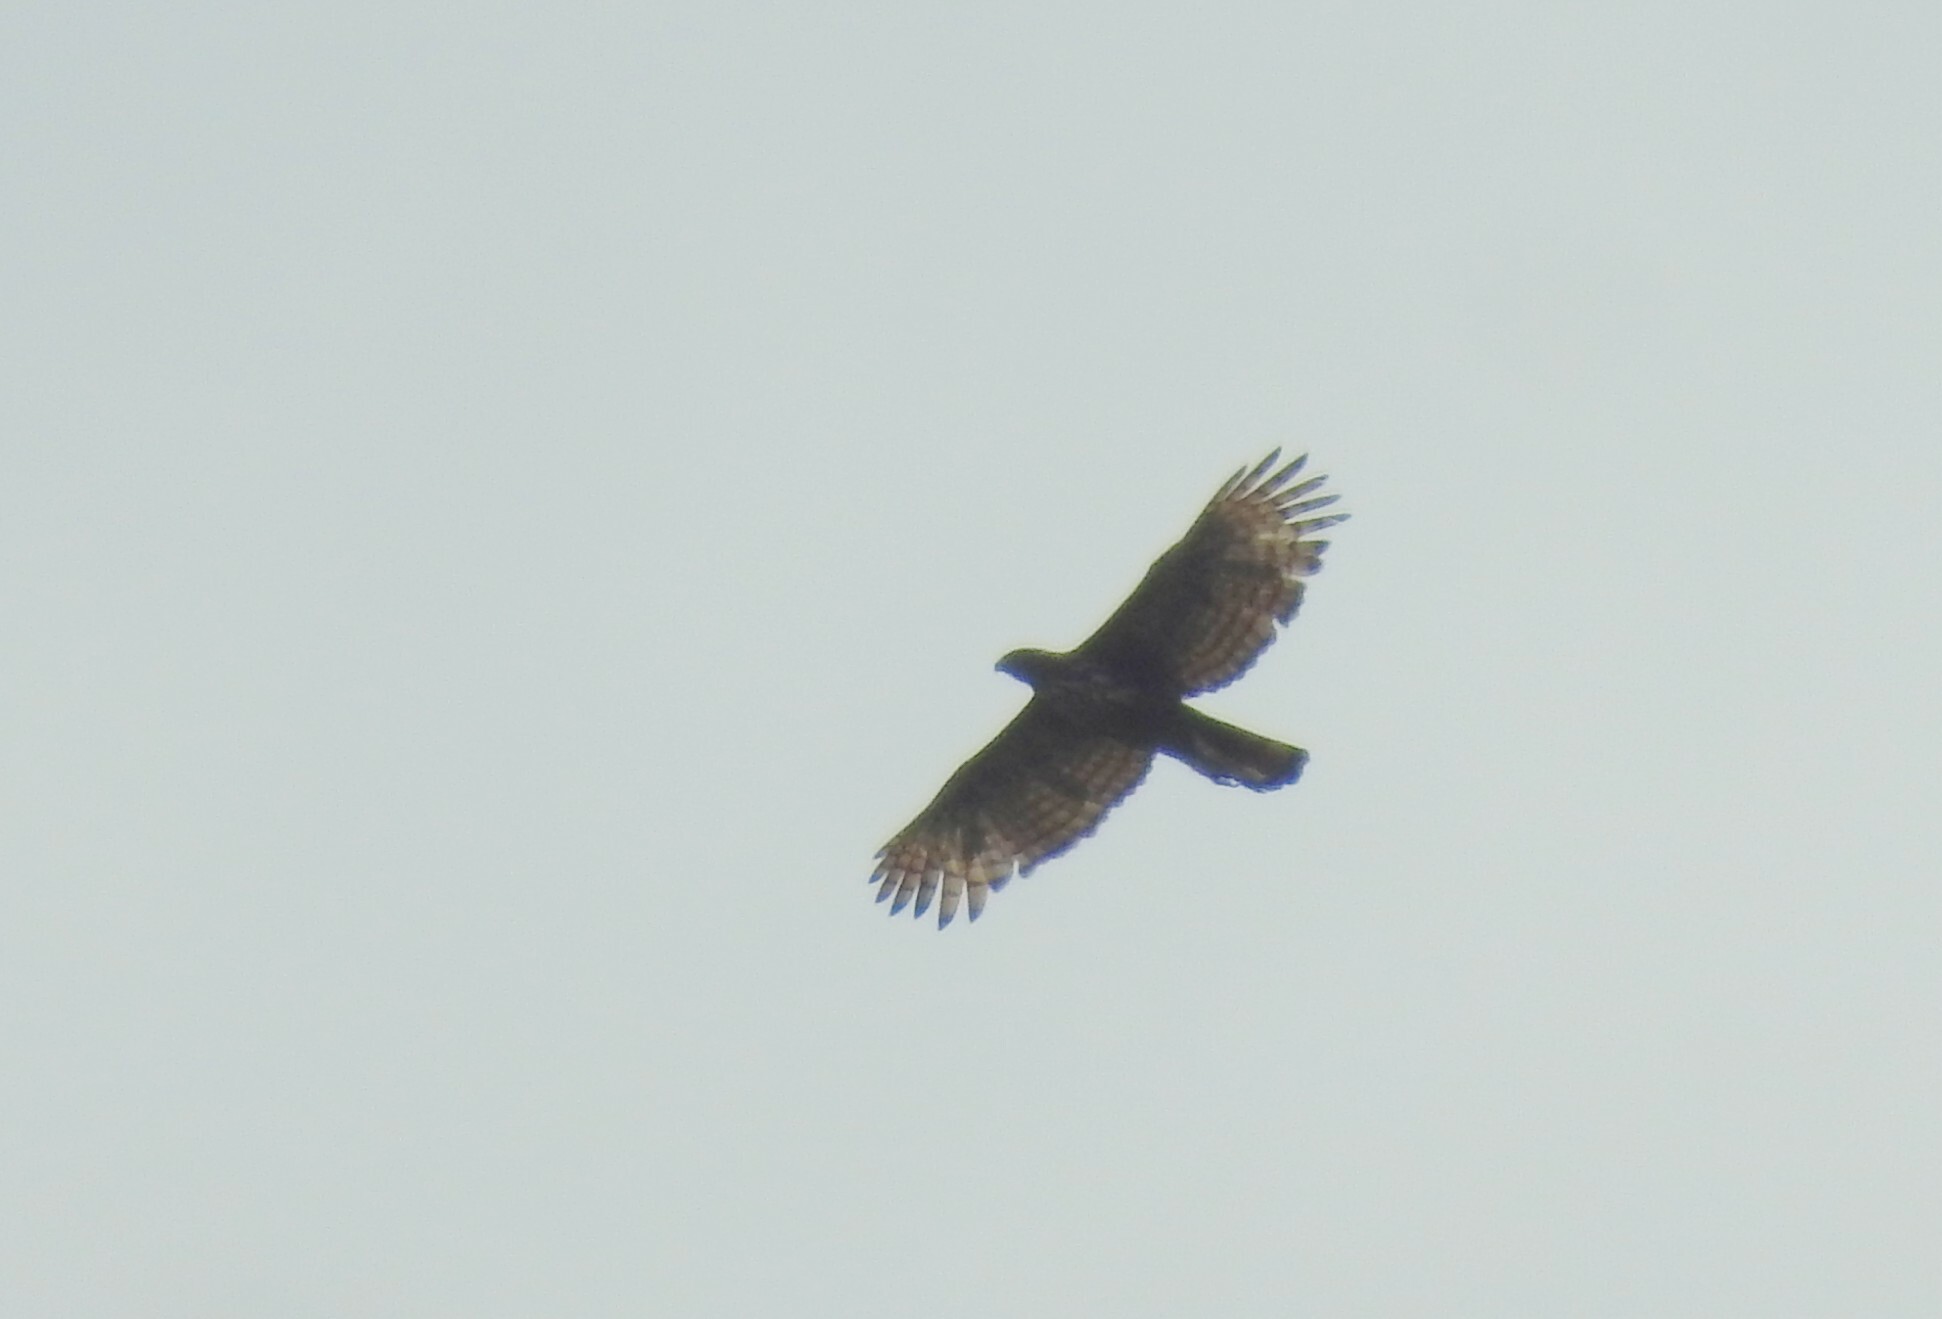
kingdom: Animalia
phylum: Chordata
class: Aves
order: Accipitriformes
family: Accipitridae
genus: Nisaetus
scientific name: Nisaetus cirrhatus
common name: Changeable hawk-eagle
